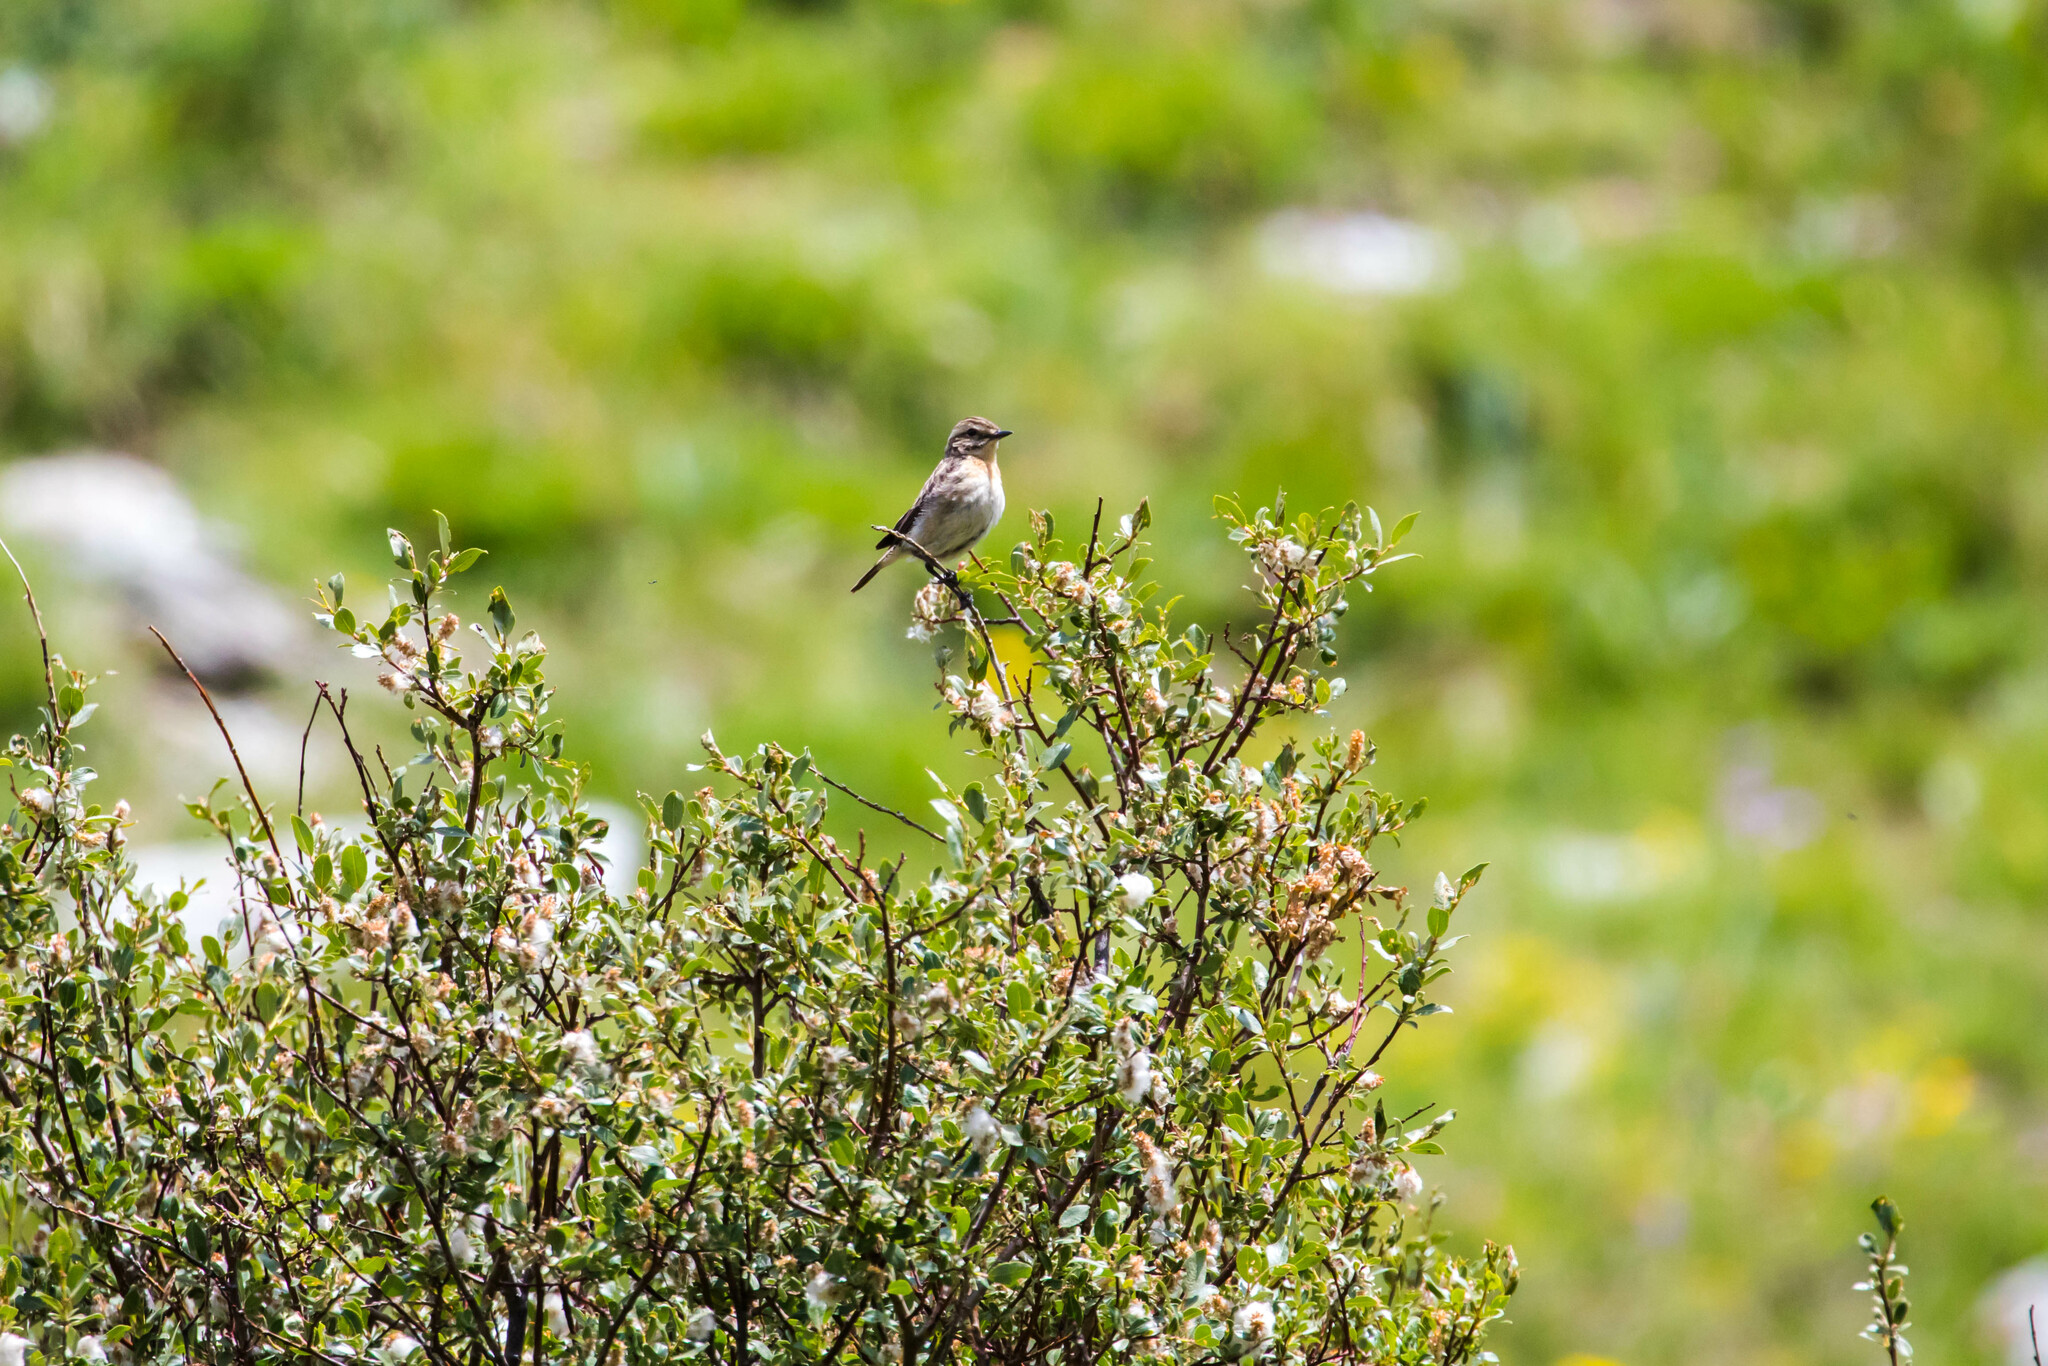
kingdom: Animalia
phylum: Chordata
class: Aves
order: Passeriformes
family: Muscicapidae
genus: Saxicola
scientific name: Saxicola rubetra
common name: Whinchat
